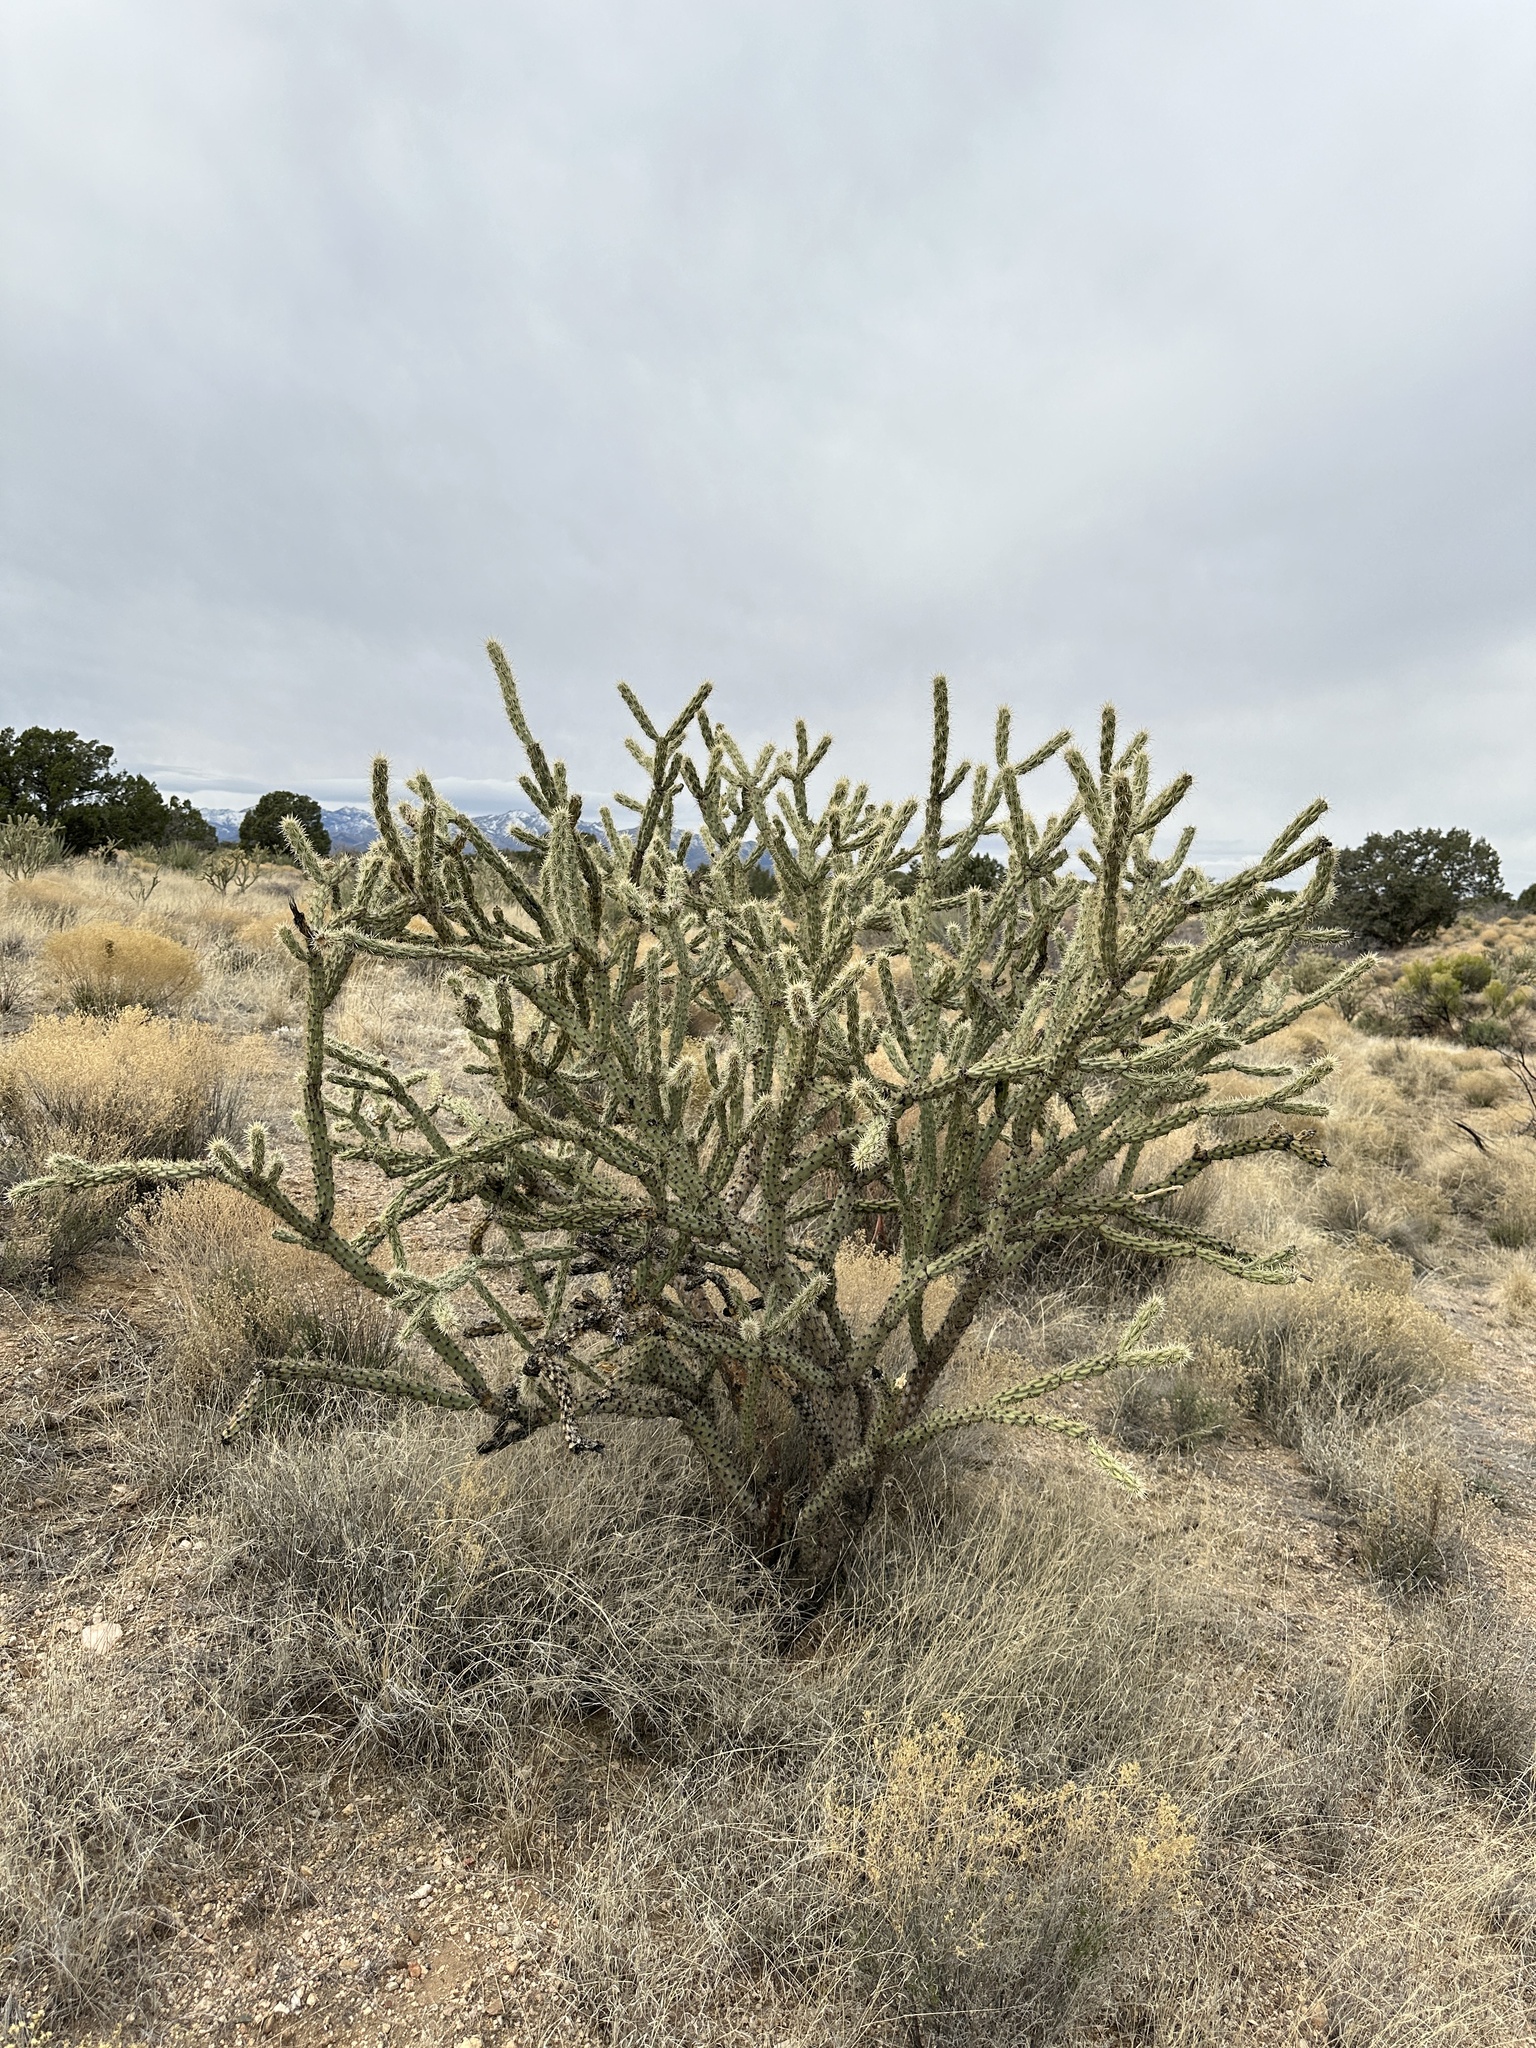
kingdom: Plantae
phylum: Tracheophyta
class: Magnoliopsida
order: Caryophyllales
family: Cactaceae
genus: Cylindropuntia
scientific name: Cylindropuntia acanthocarpa
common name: Buckhorn cholla
